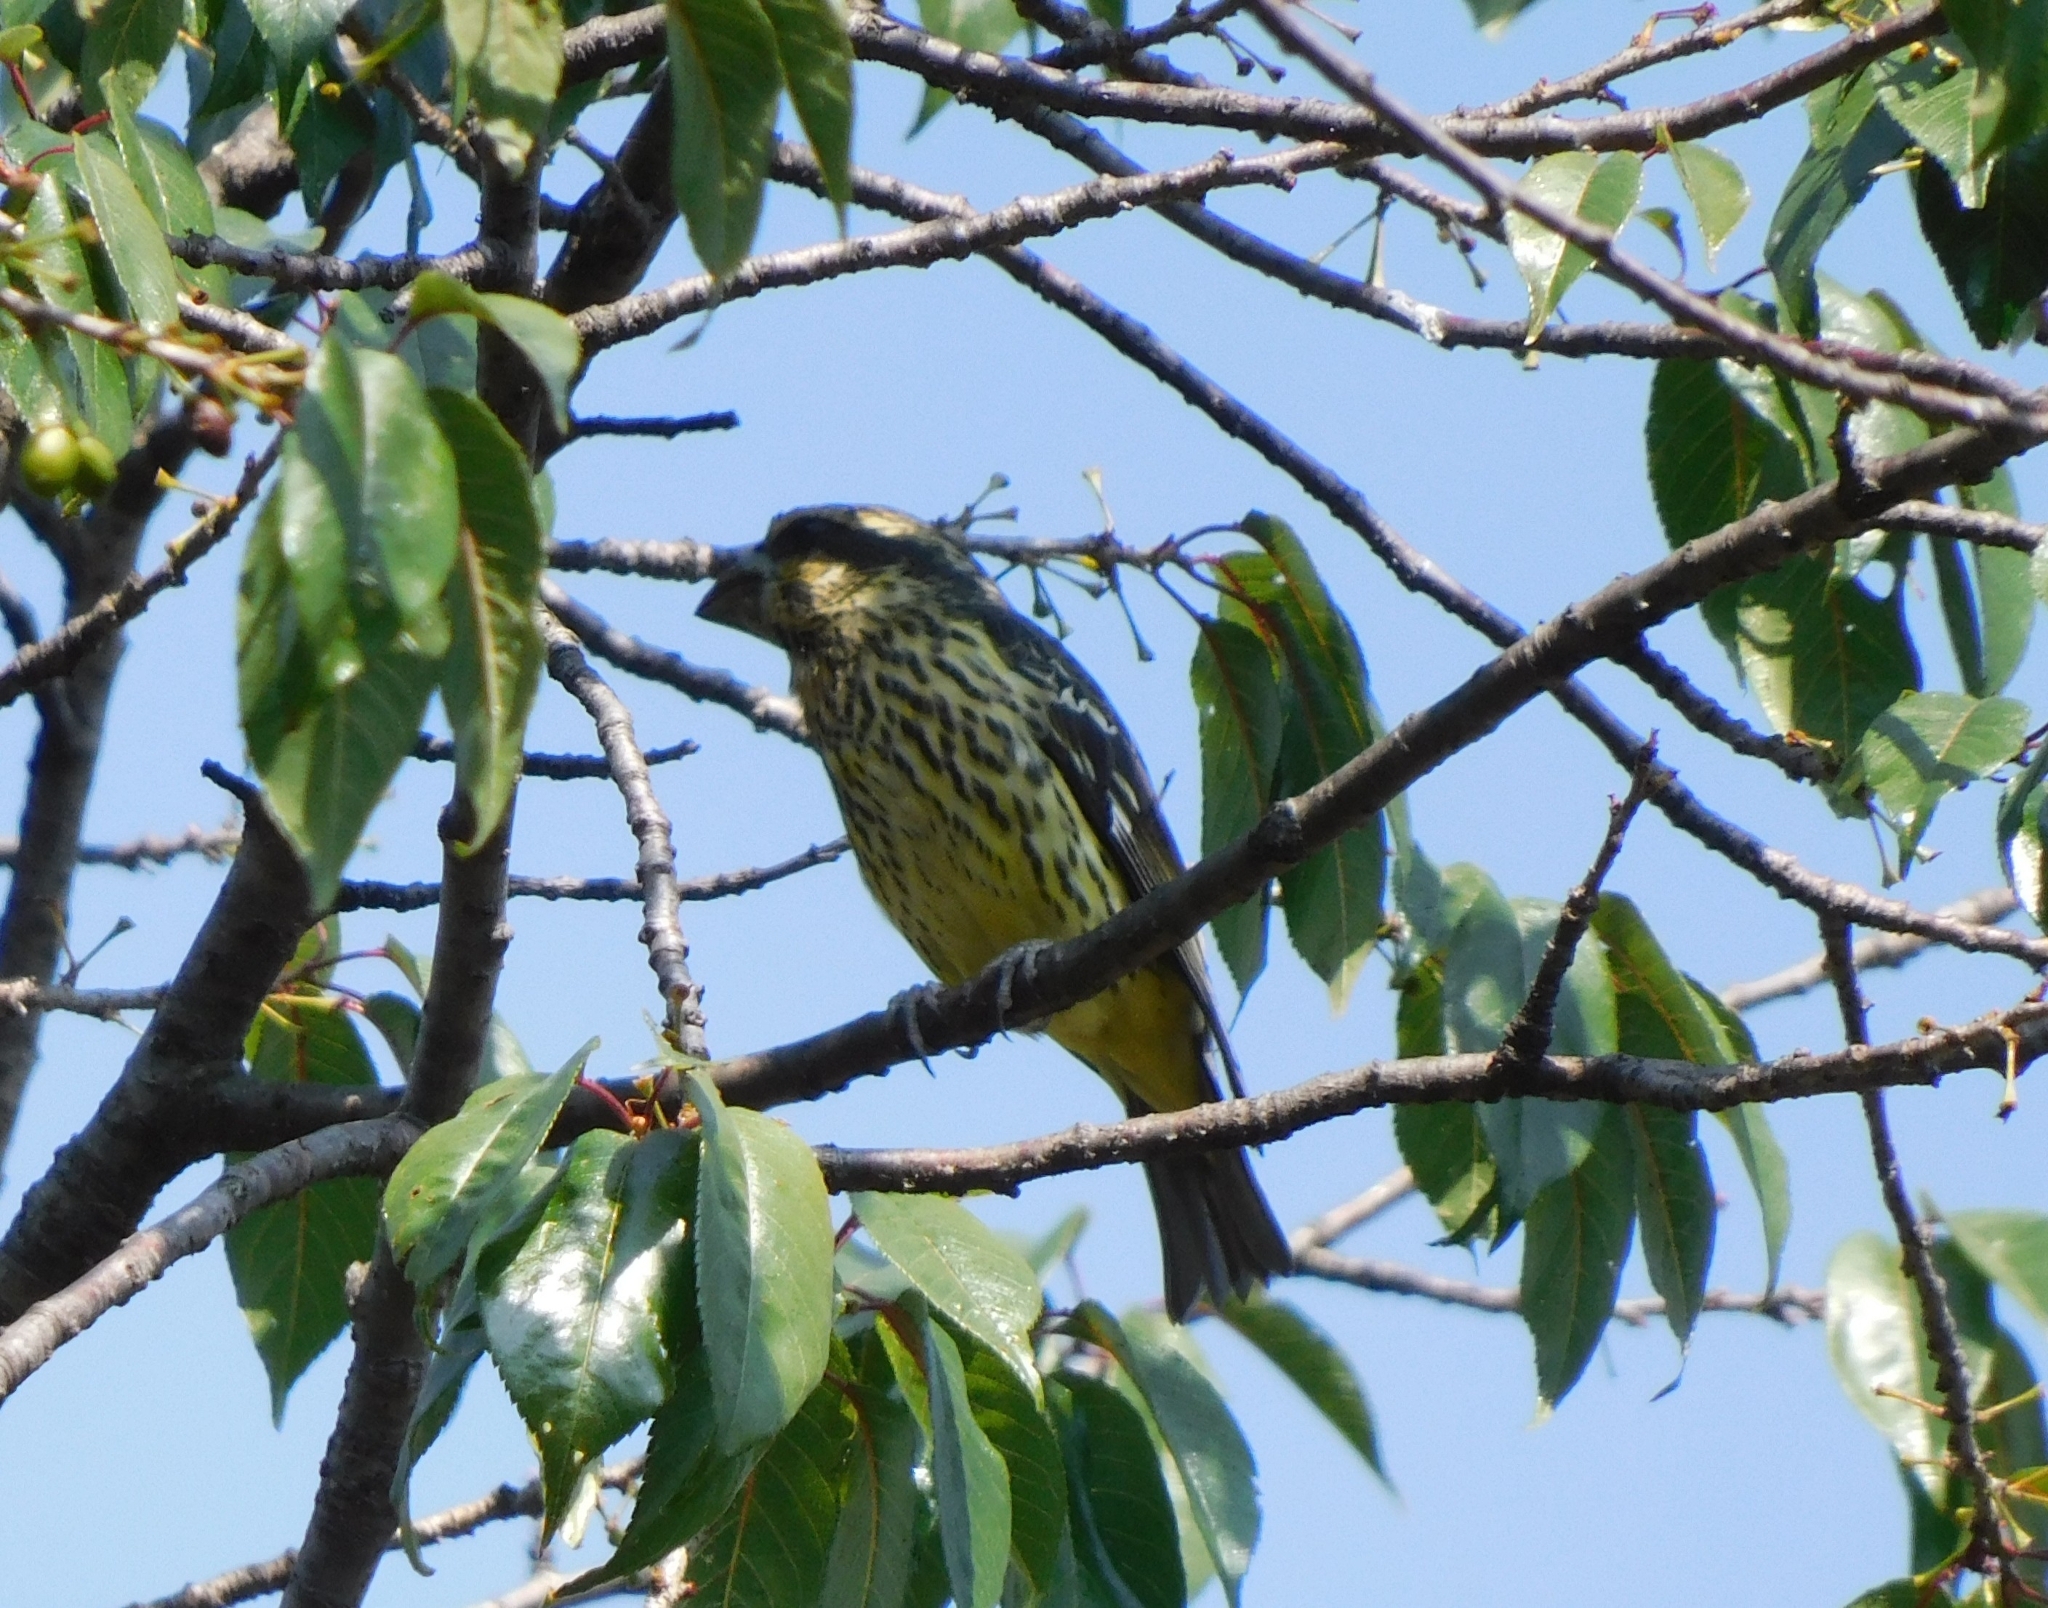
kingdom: Animalia
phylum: Chordata
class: Aves
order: Passeriformes
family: Fringillidae
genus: Mycerobas
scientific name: Mycerobas melanozanthos
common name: Spot-winged grosbeak
